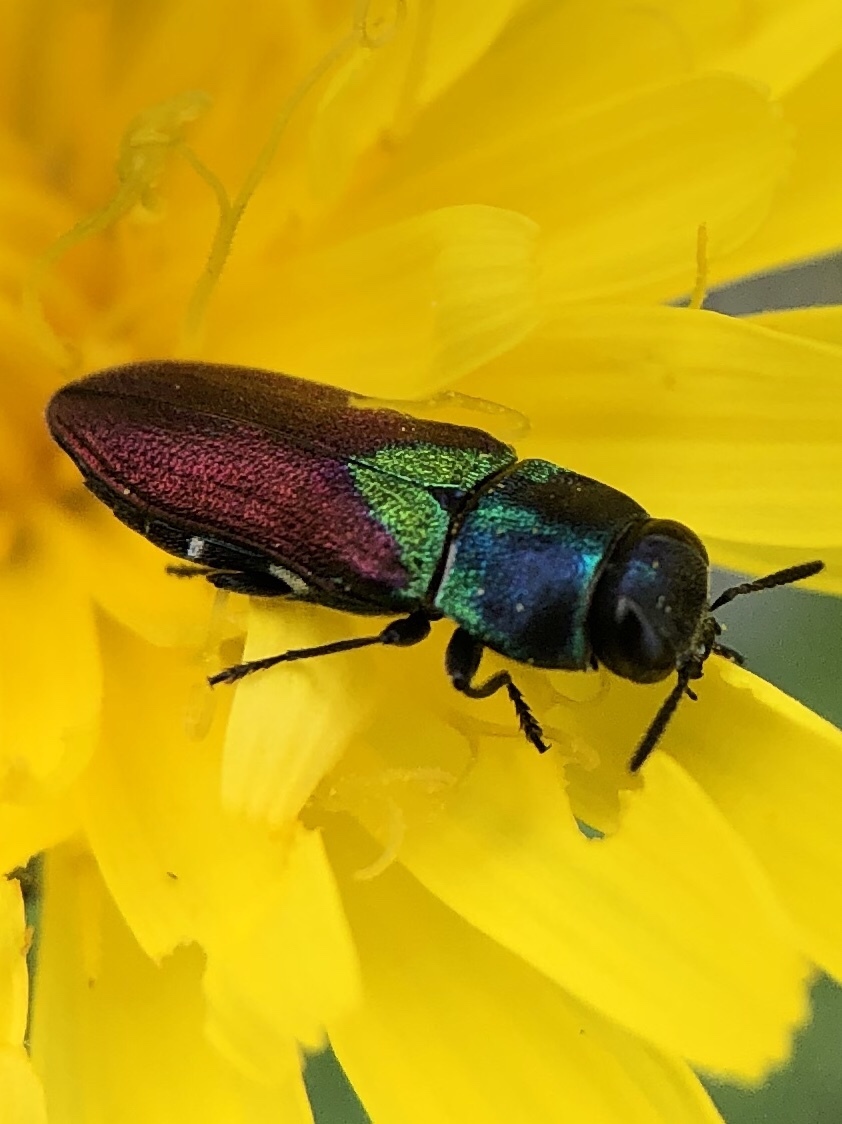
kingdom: Animalia
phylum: Arthropoda
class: Insecta
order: Coleoptera
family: Buprestidae
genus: Anthaxia
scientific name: Anthaxia salicis
